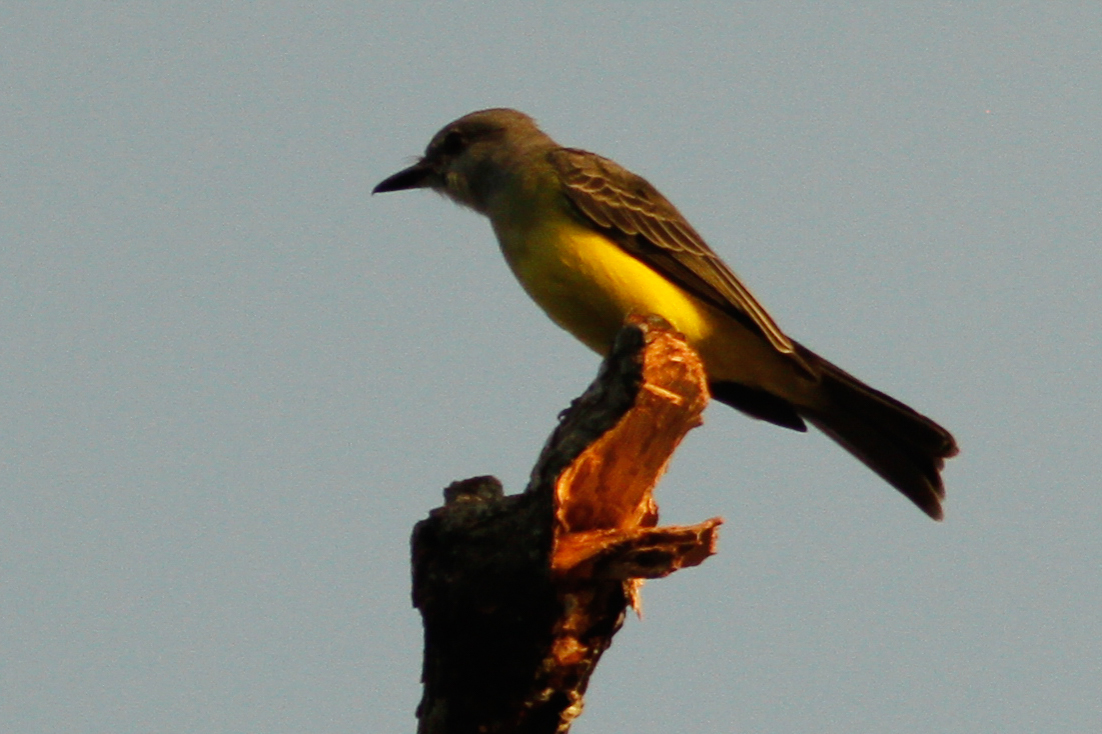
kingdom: Animalia
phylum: Chordata
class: Aves
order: Passeriformes
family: Tyrannidae
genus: Tyrannus
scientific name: Tyrannus melancholicus
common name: Tropical kingbird
